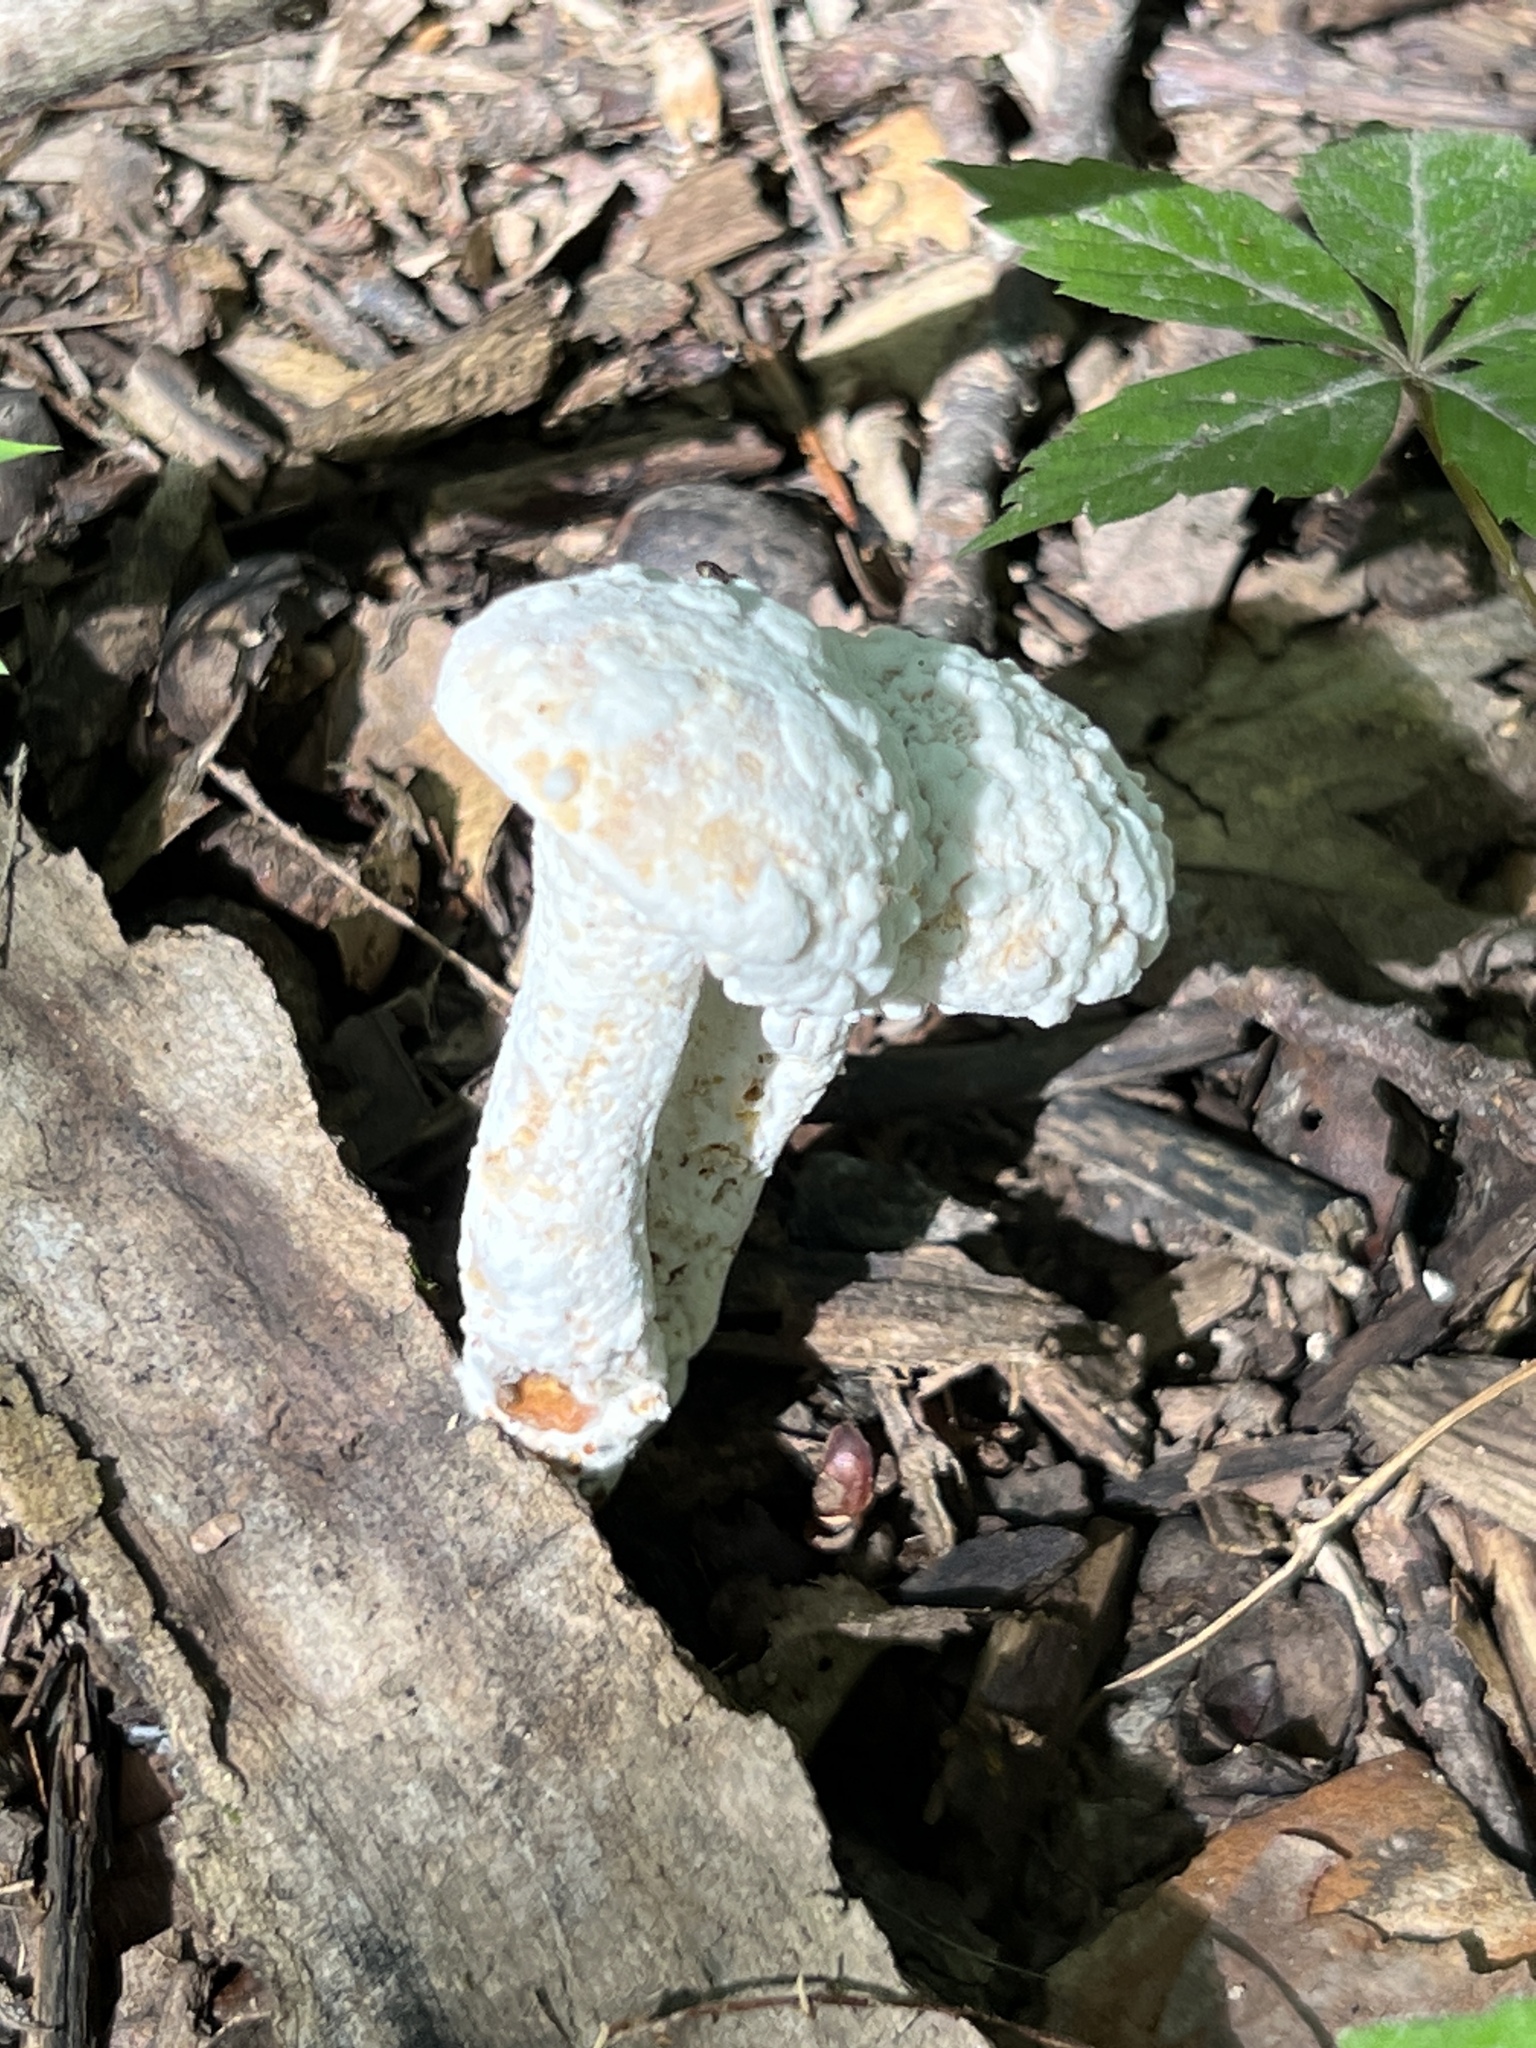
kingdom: Fungi
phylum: Ascomycota
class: Sordariomycetes
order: Hypocreales
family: Hypocreaceae
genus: Hypomyces
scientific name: Hypomyces chrysospermus
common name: Bolete mould
